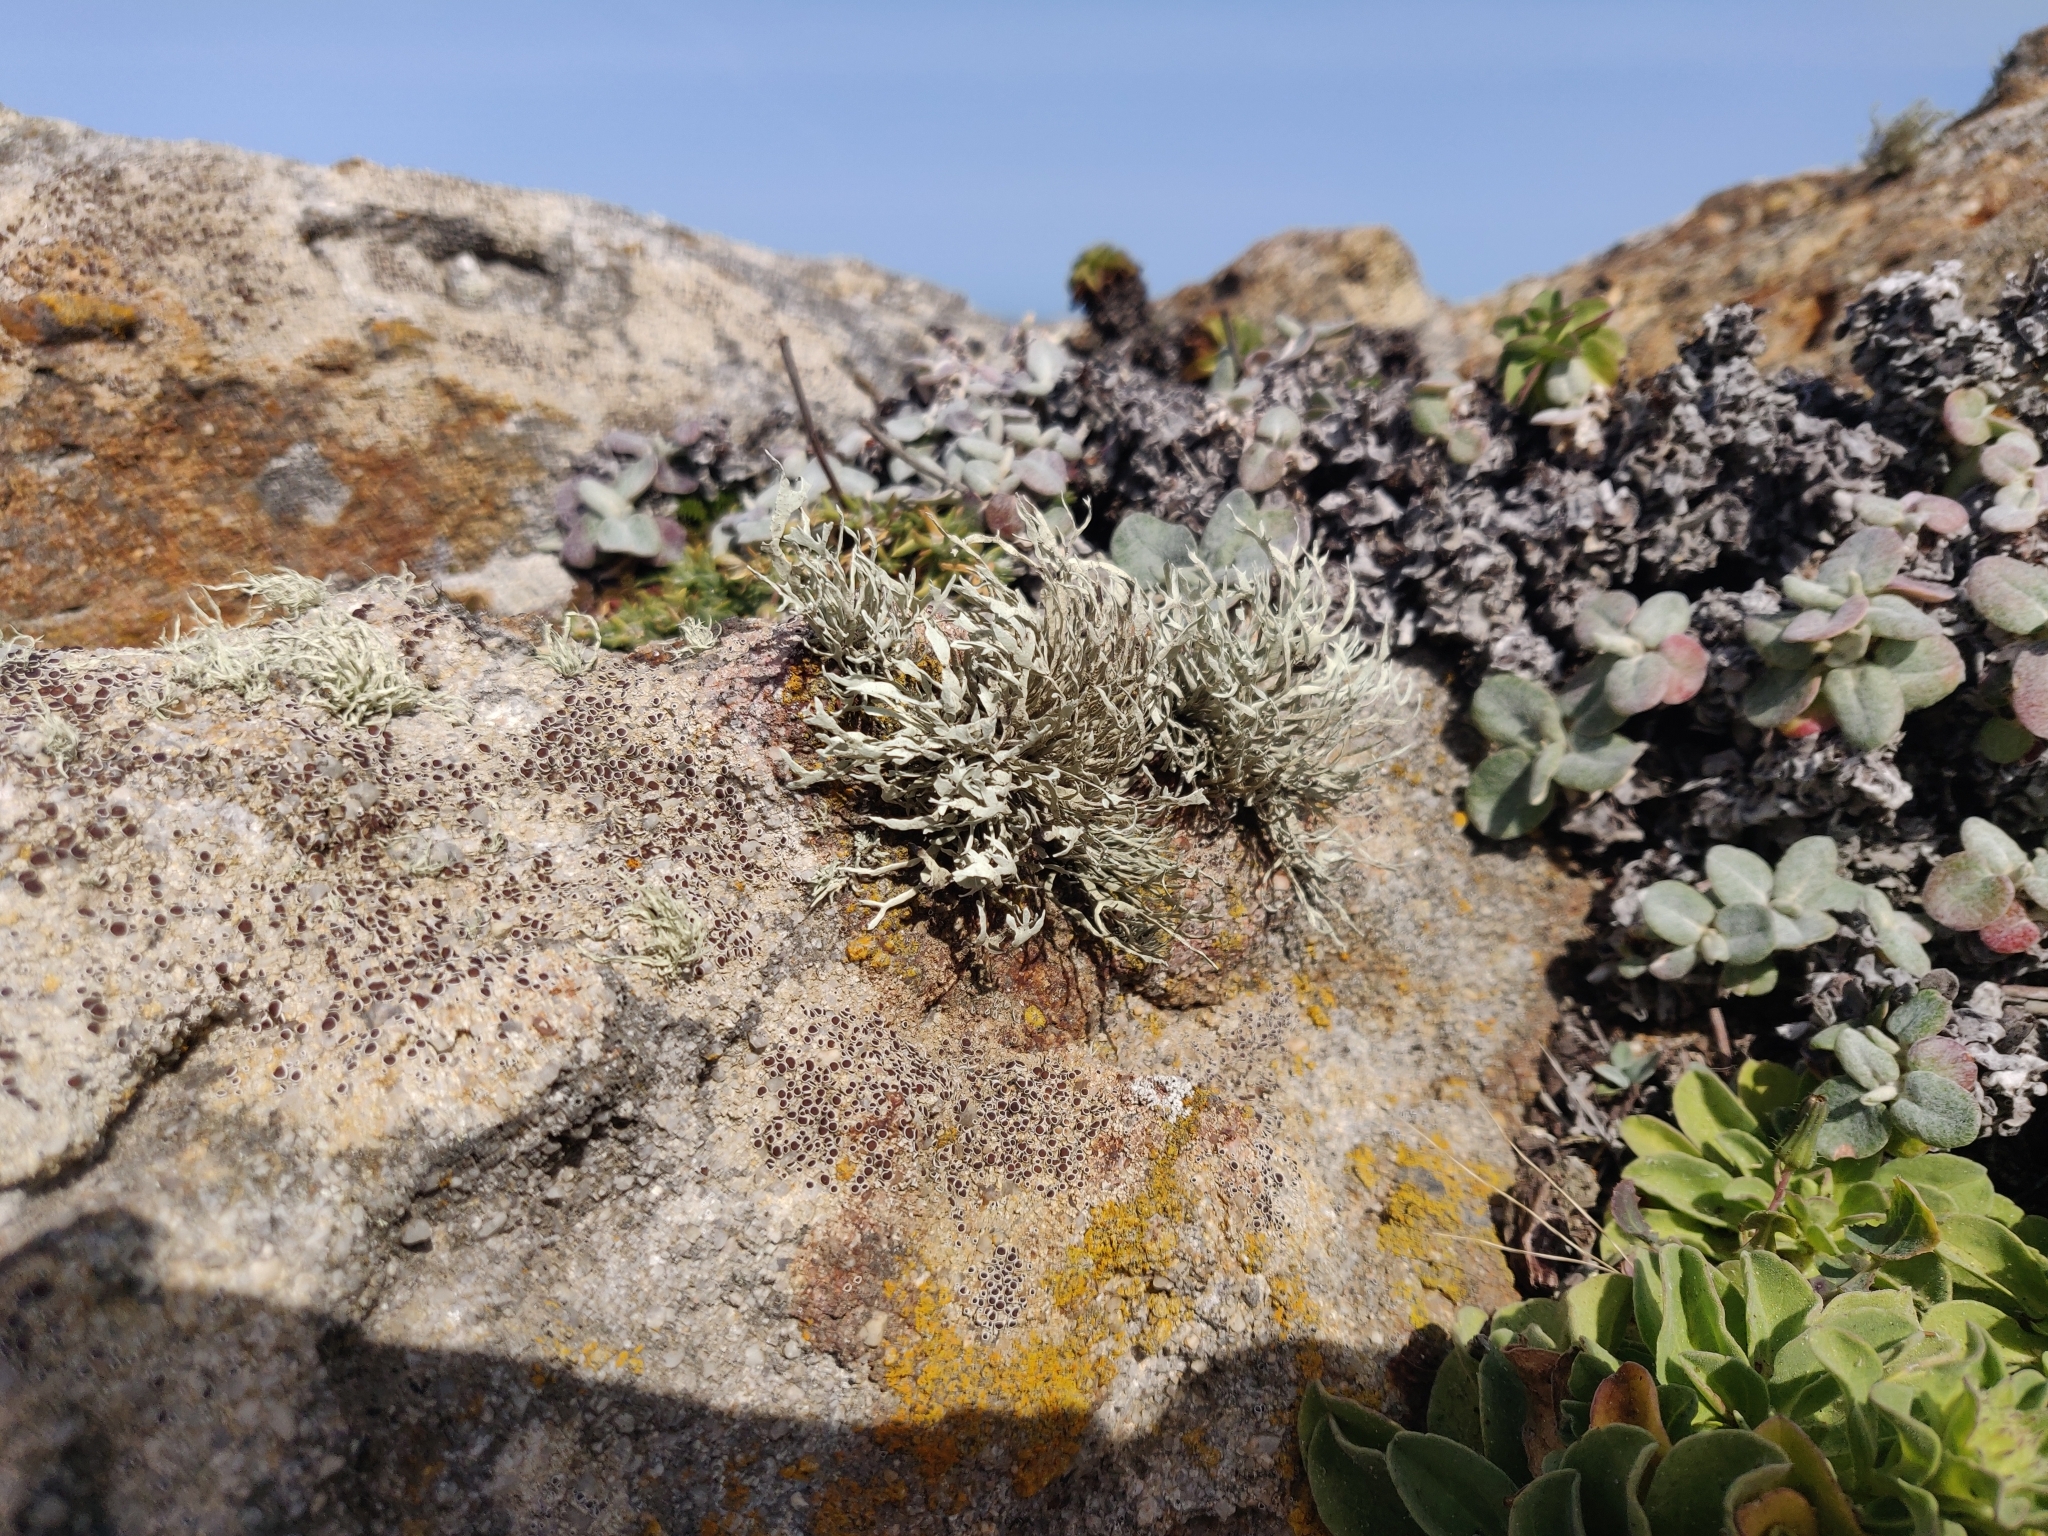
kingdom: Fungi
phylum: Ascomycota
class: Lecanoromycetes
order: Lecanorales
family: Ramalinaceae
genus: Niebla
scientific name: Niebla homalea
